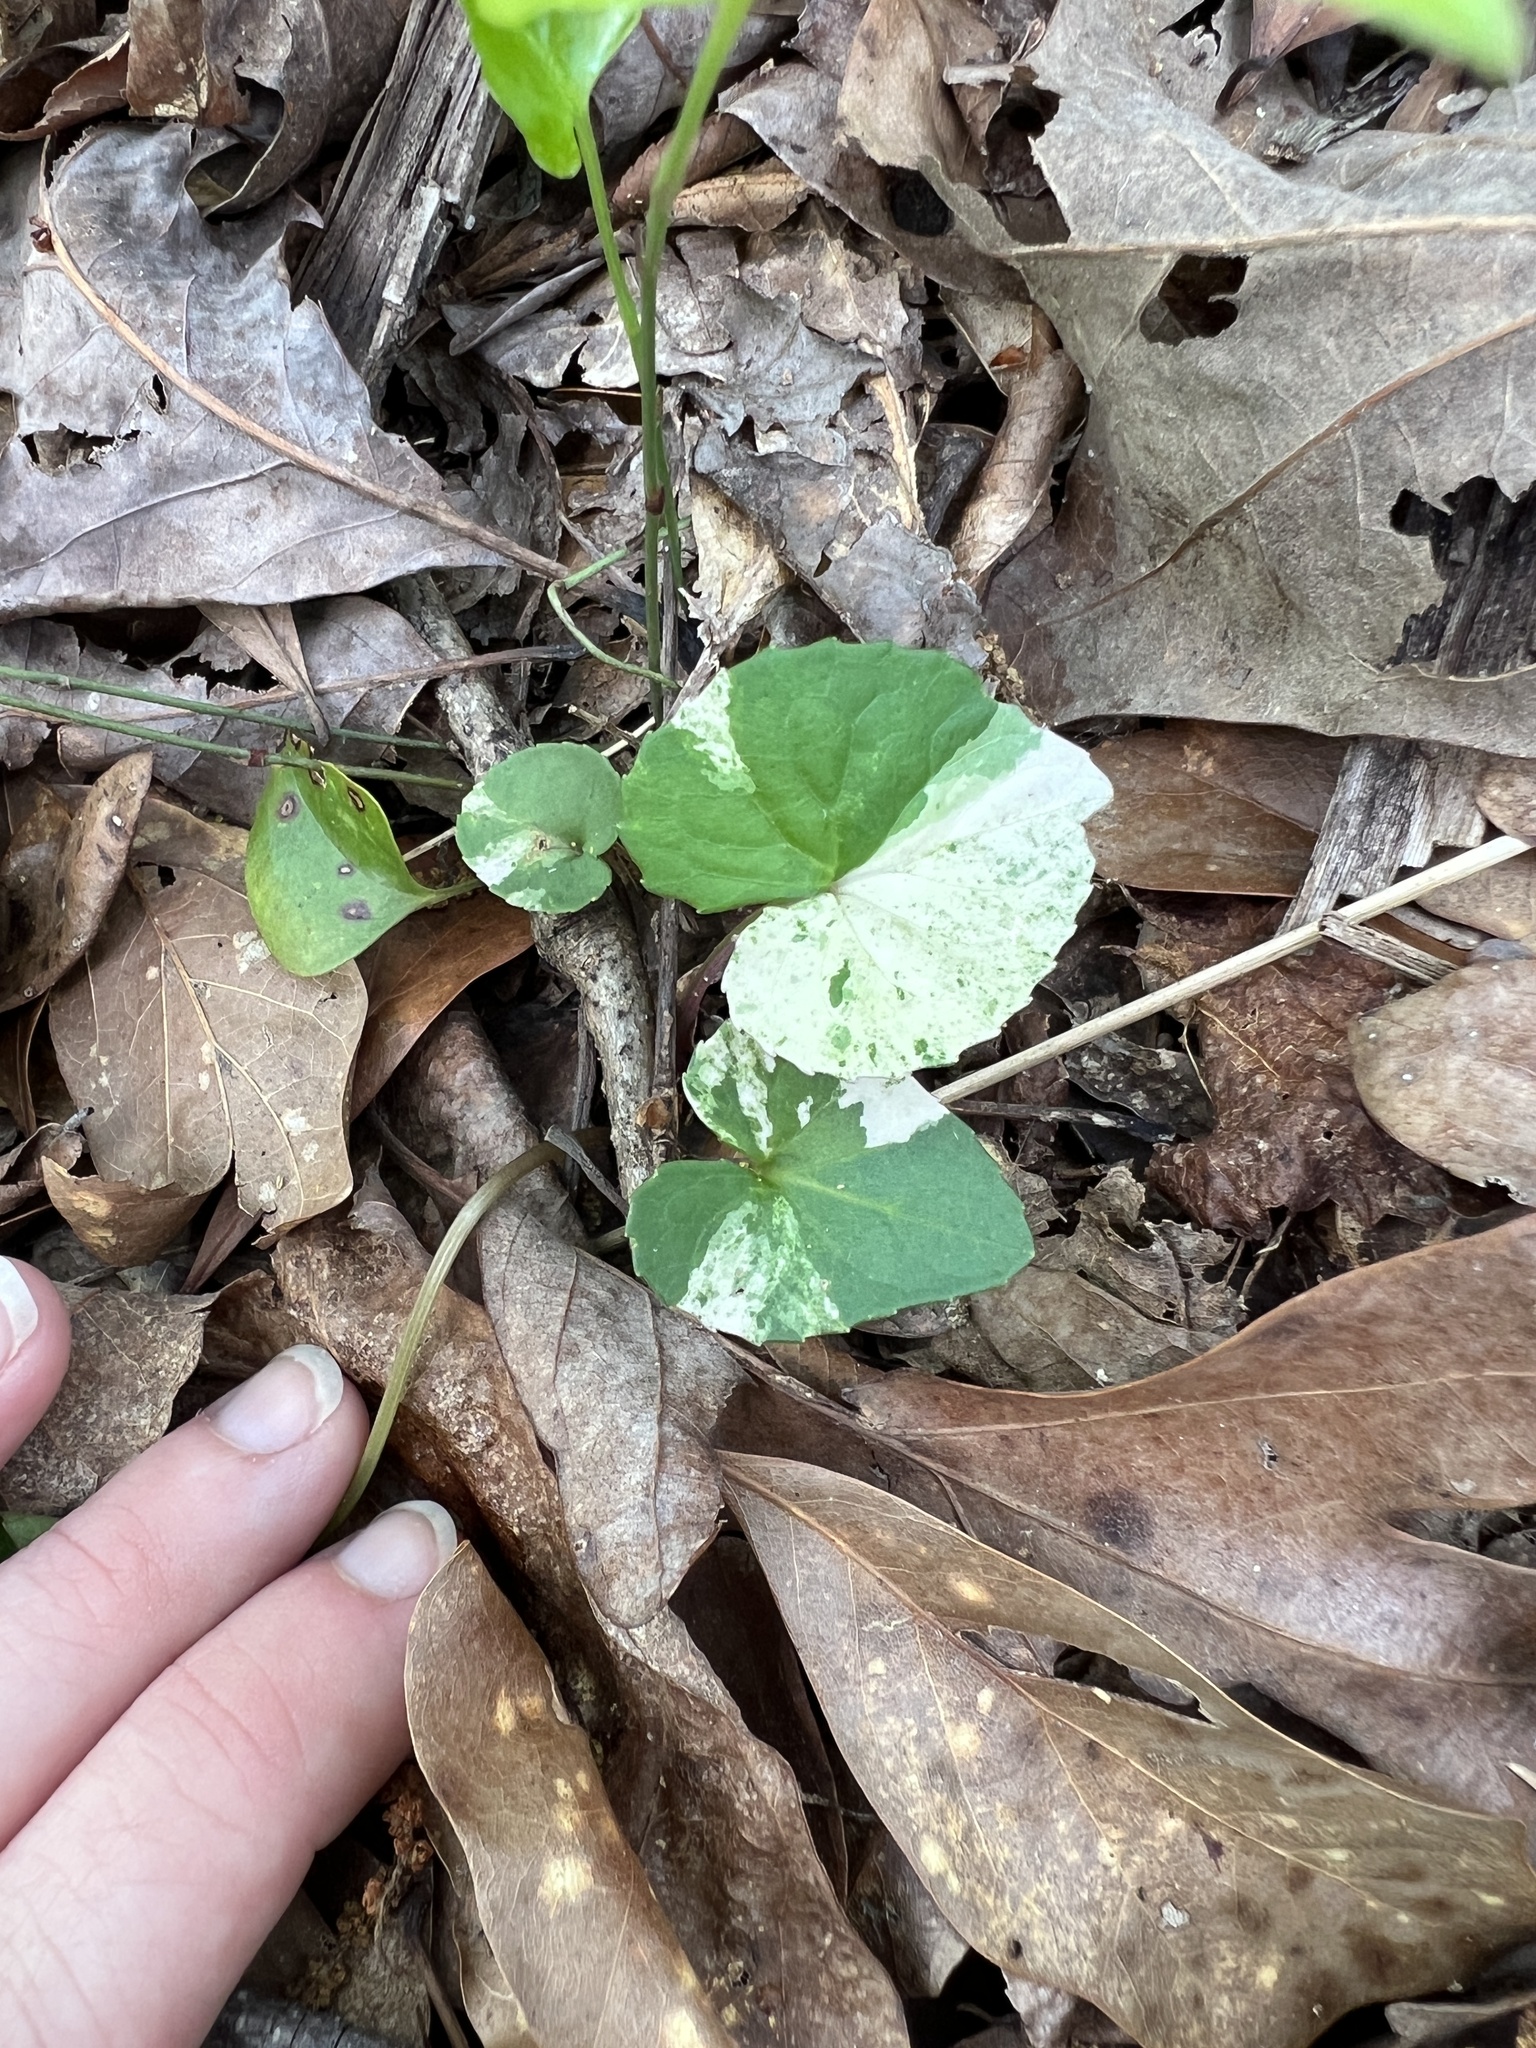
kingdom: Plantae
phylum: Tracheophyta
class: Magnoliopsida
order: Malpighiales
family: Violaceae
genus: Viola
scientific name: Viola
